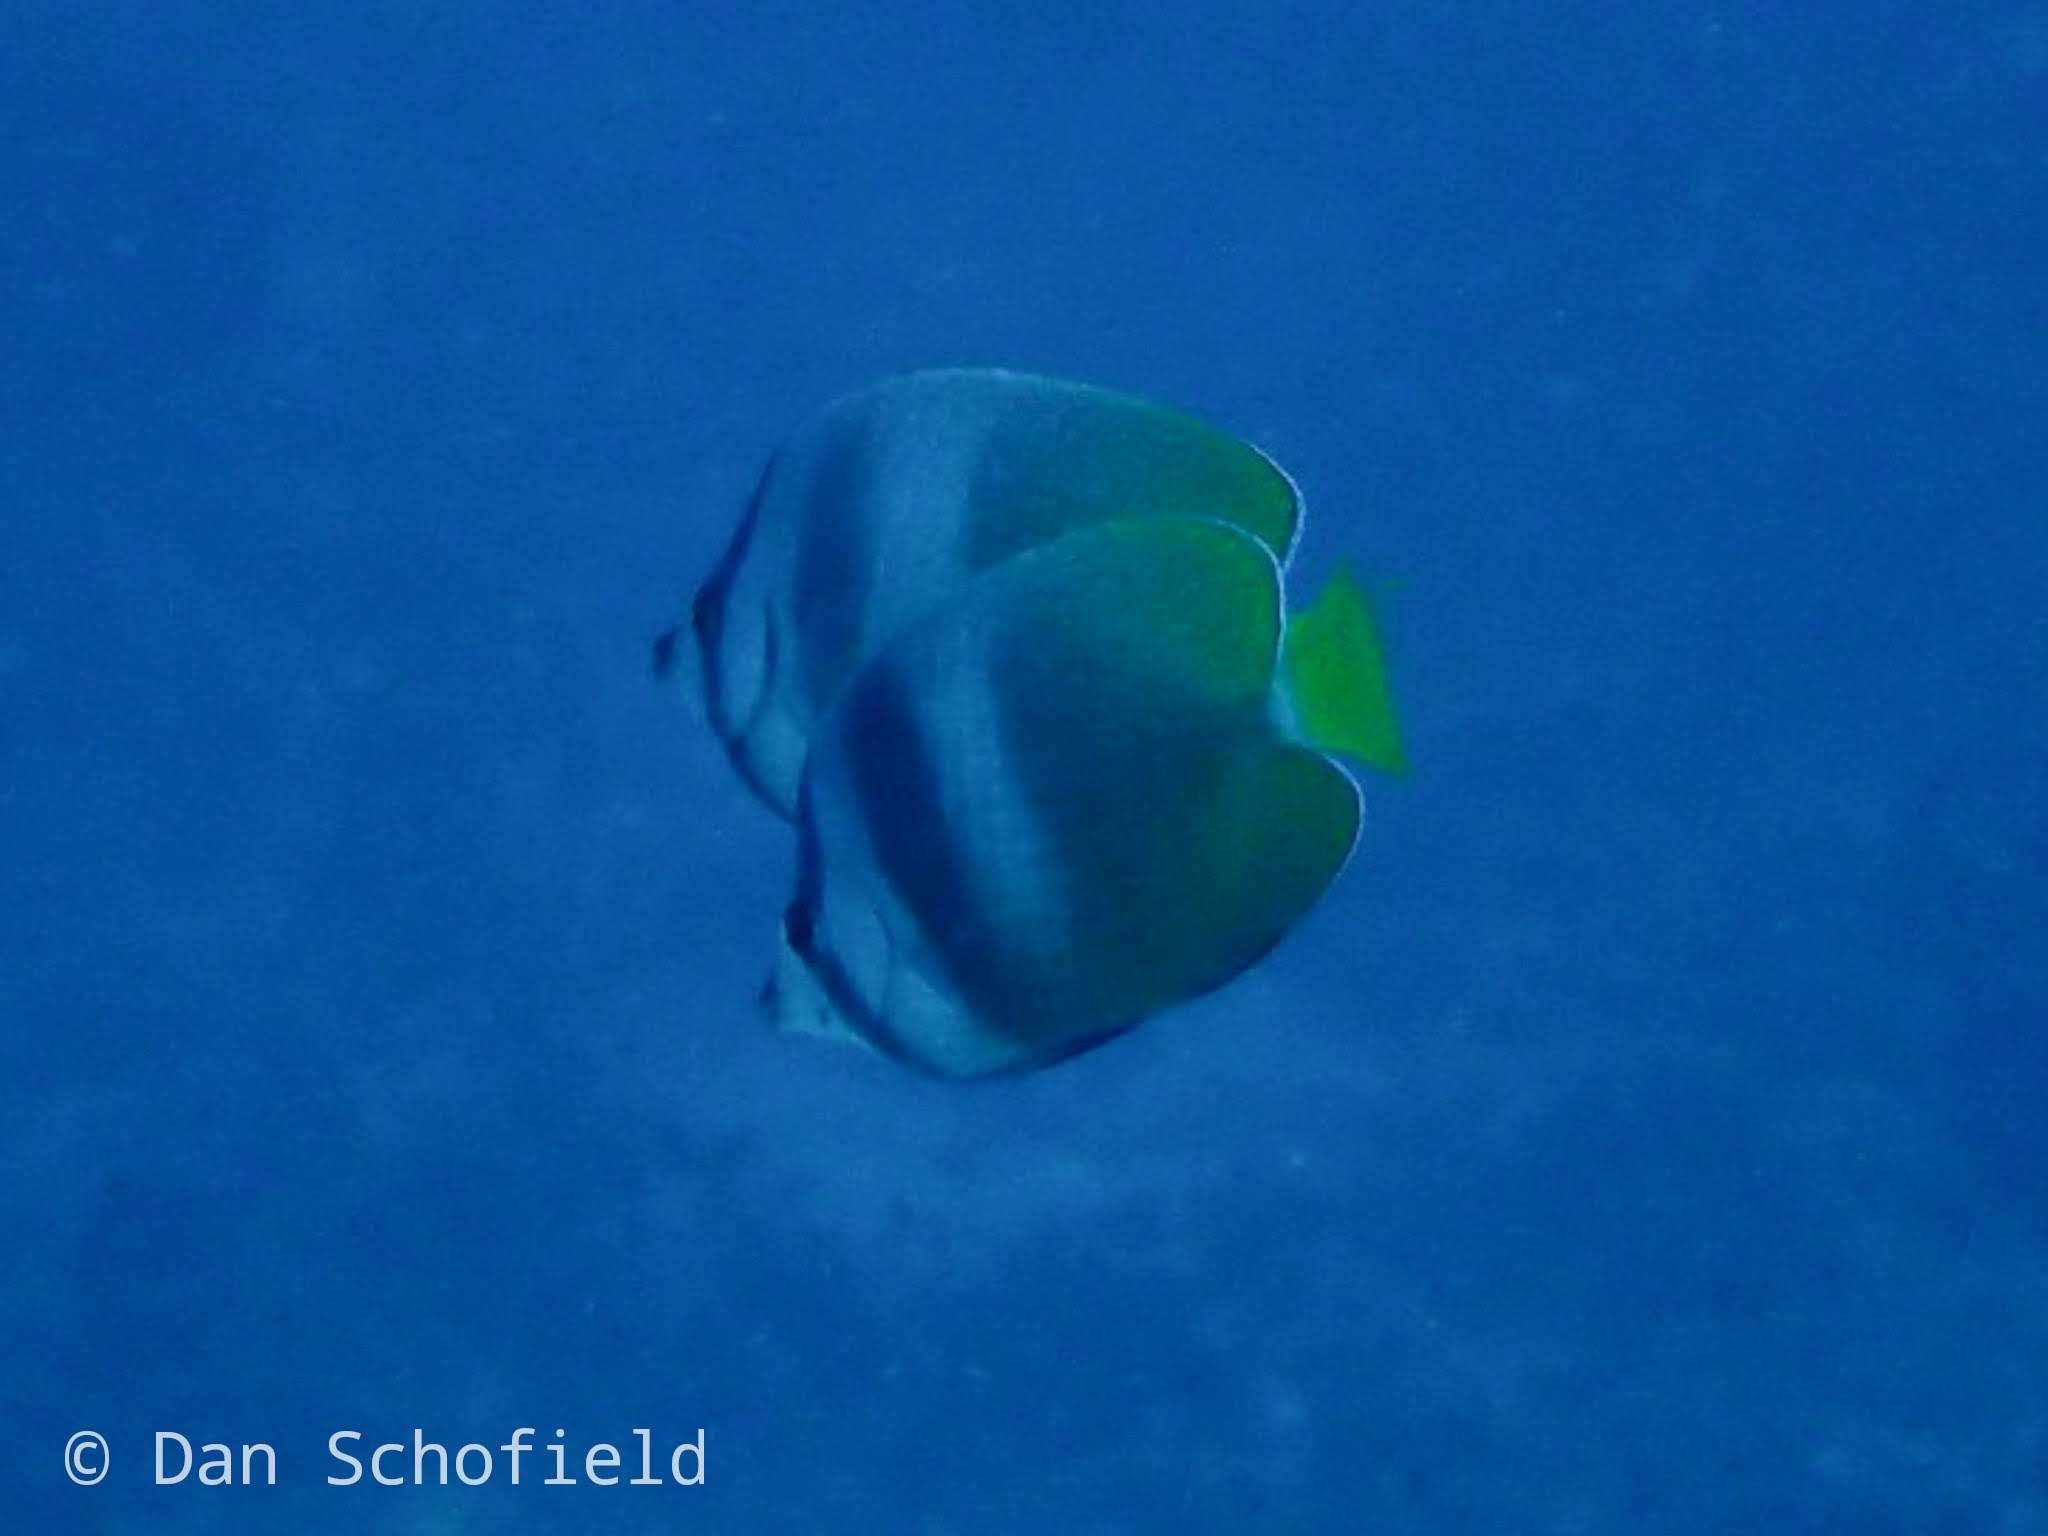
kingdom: Animalia
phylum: Chordata
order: Perciformes
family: Chaetodontidae
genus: Chaetodon
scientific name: Chaetodon kleinii
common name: Klein's butterflyfish
